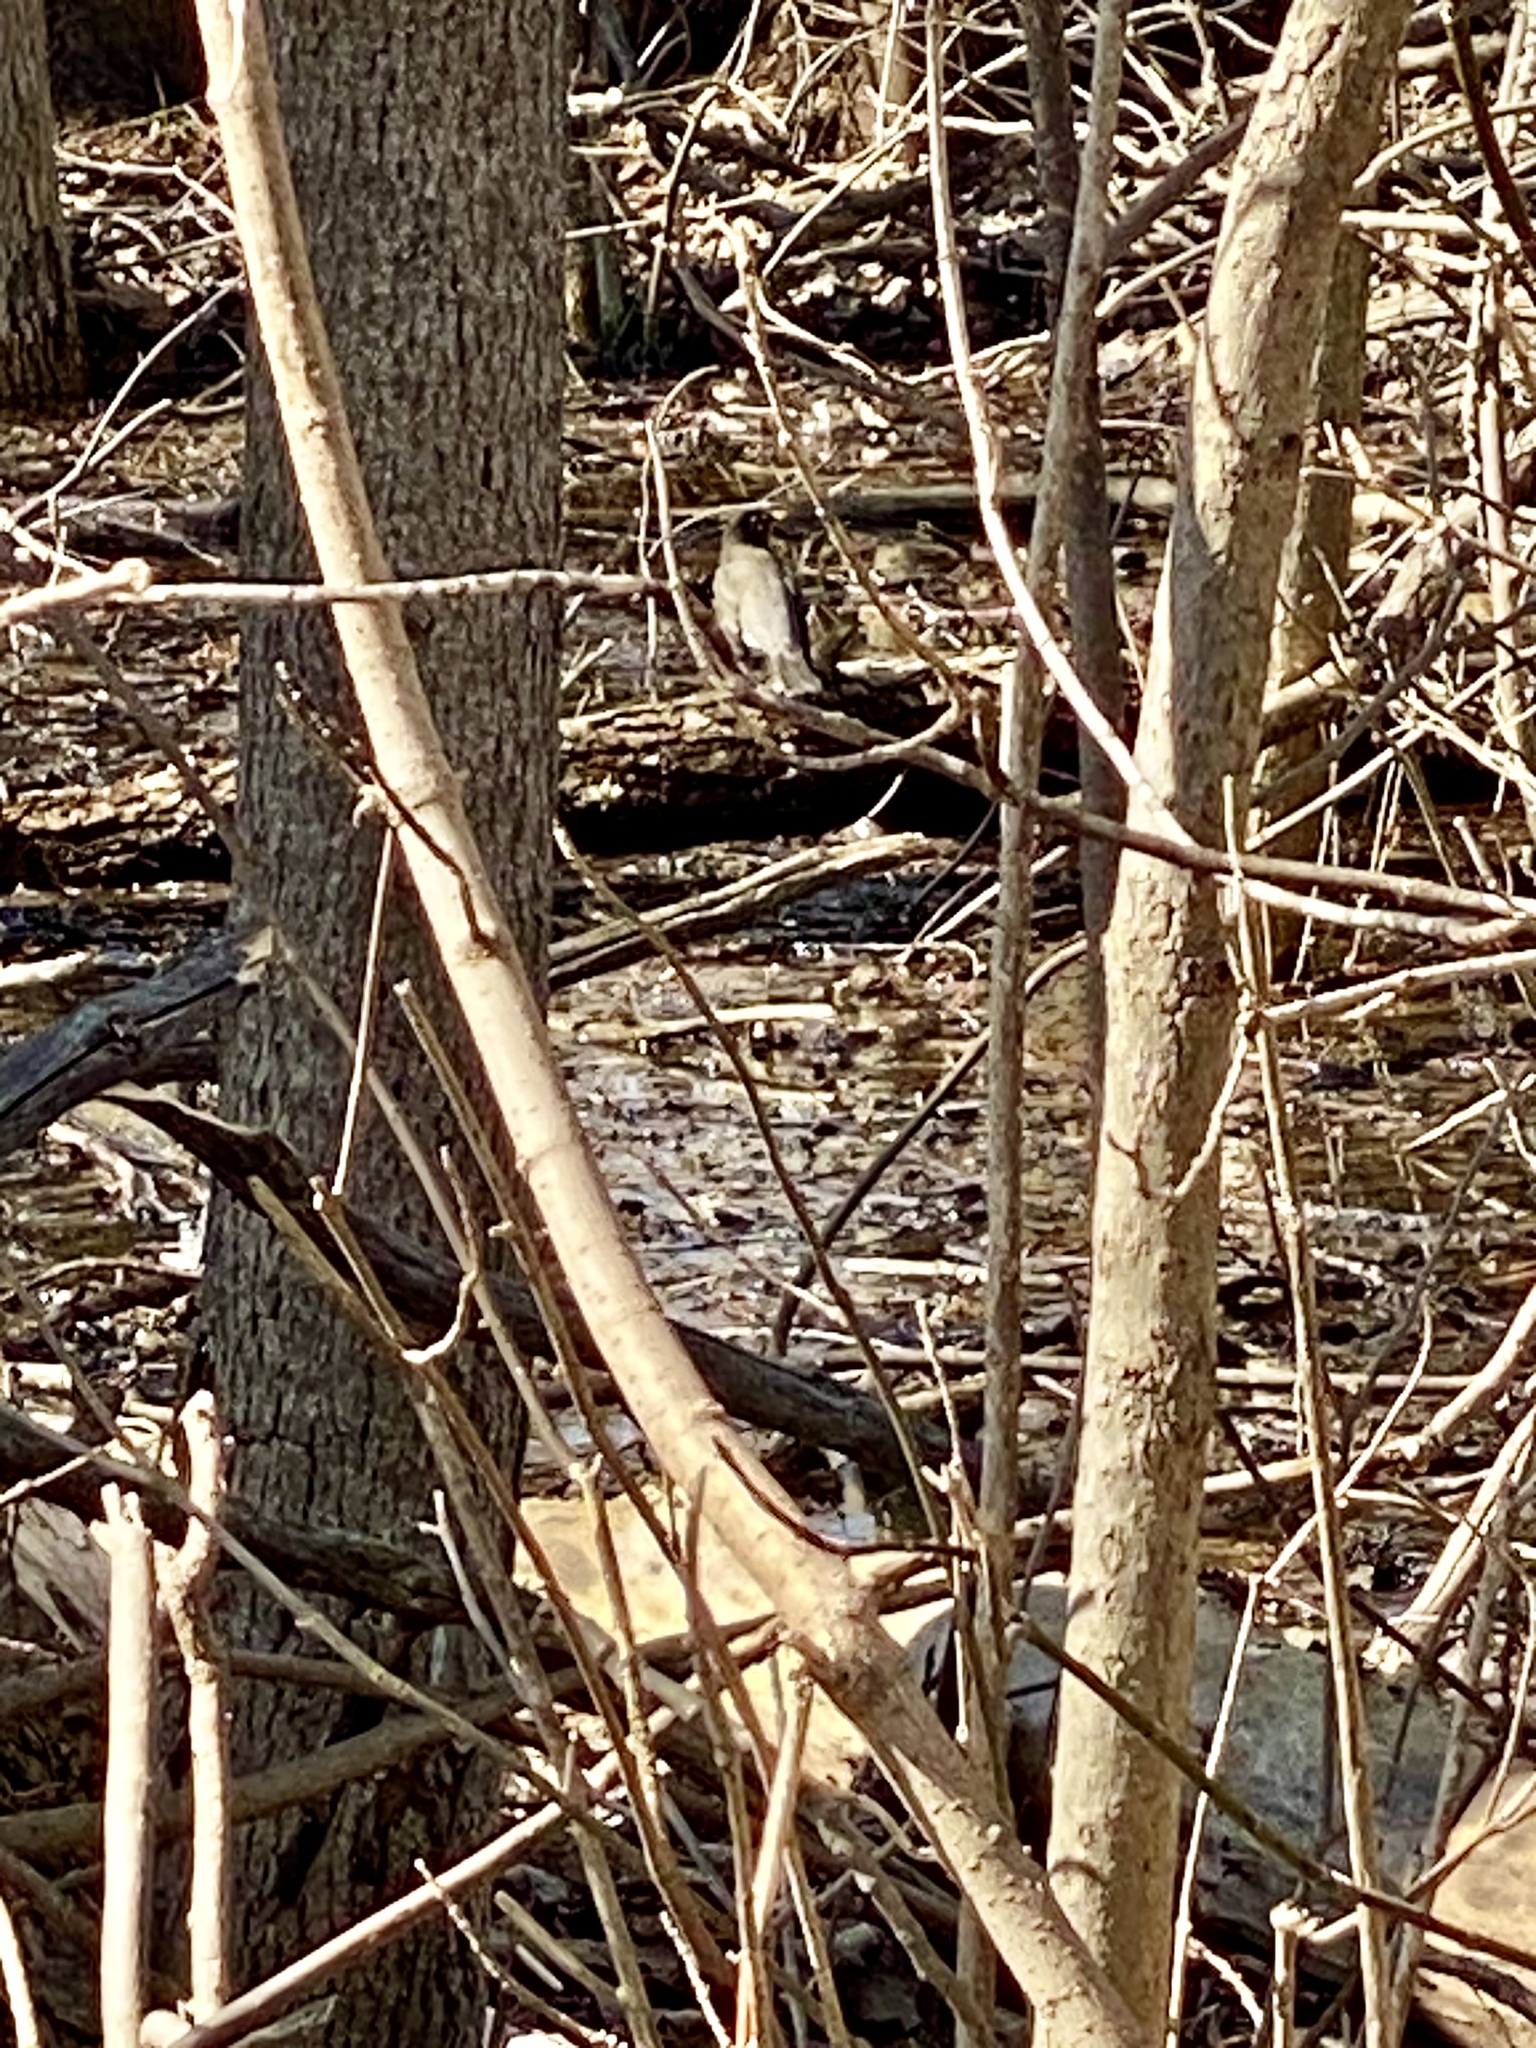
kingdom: Animalia
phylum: Chordata
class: Aves
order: Passeriformes
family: Turdidae
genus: Turdus
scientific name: Turdus migratorius
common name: American robin
